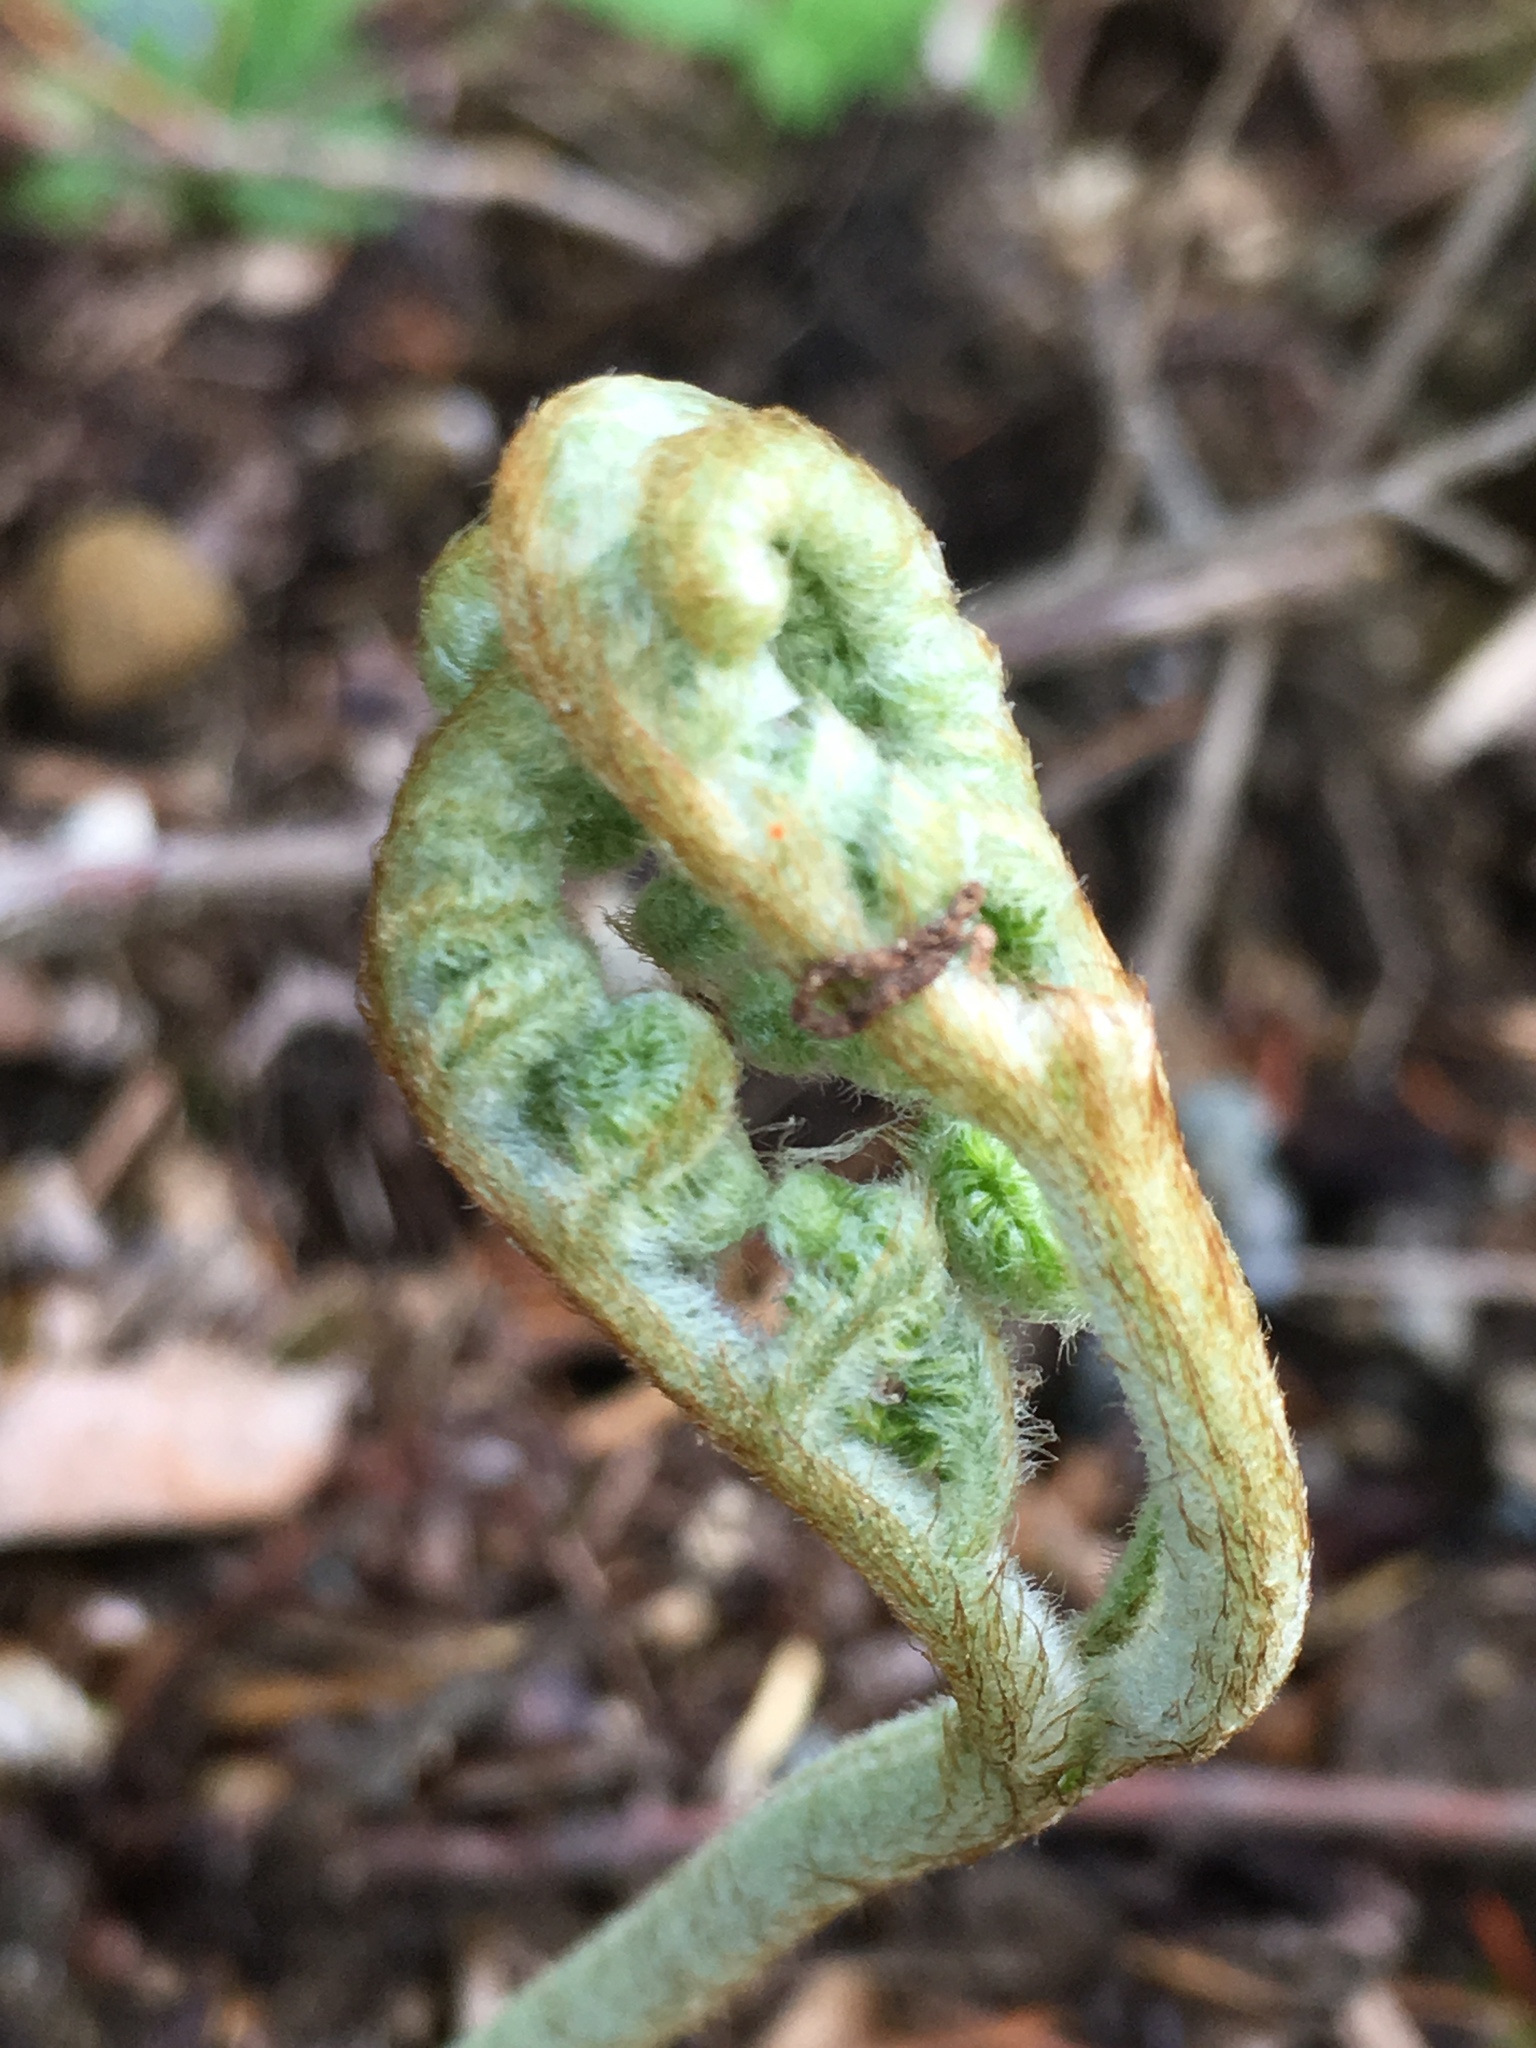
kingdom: Plantae
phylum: Tracheophyta
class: Polypodiopsida
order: Polypodiales
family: Dennstaedtiaceae
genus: Pteridium
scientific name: Pteridium aquilinum
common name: Bracken
